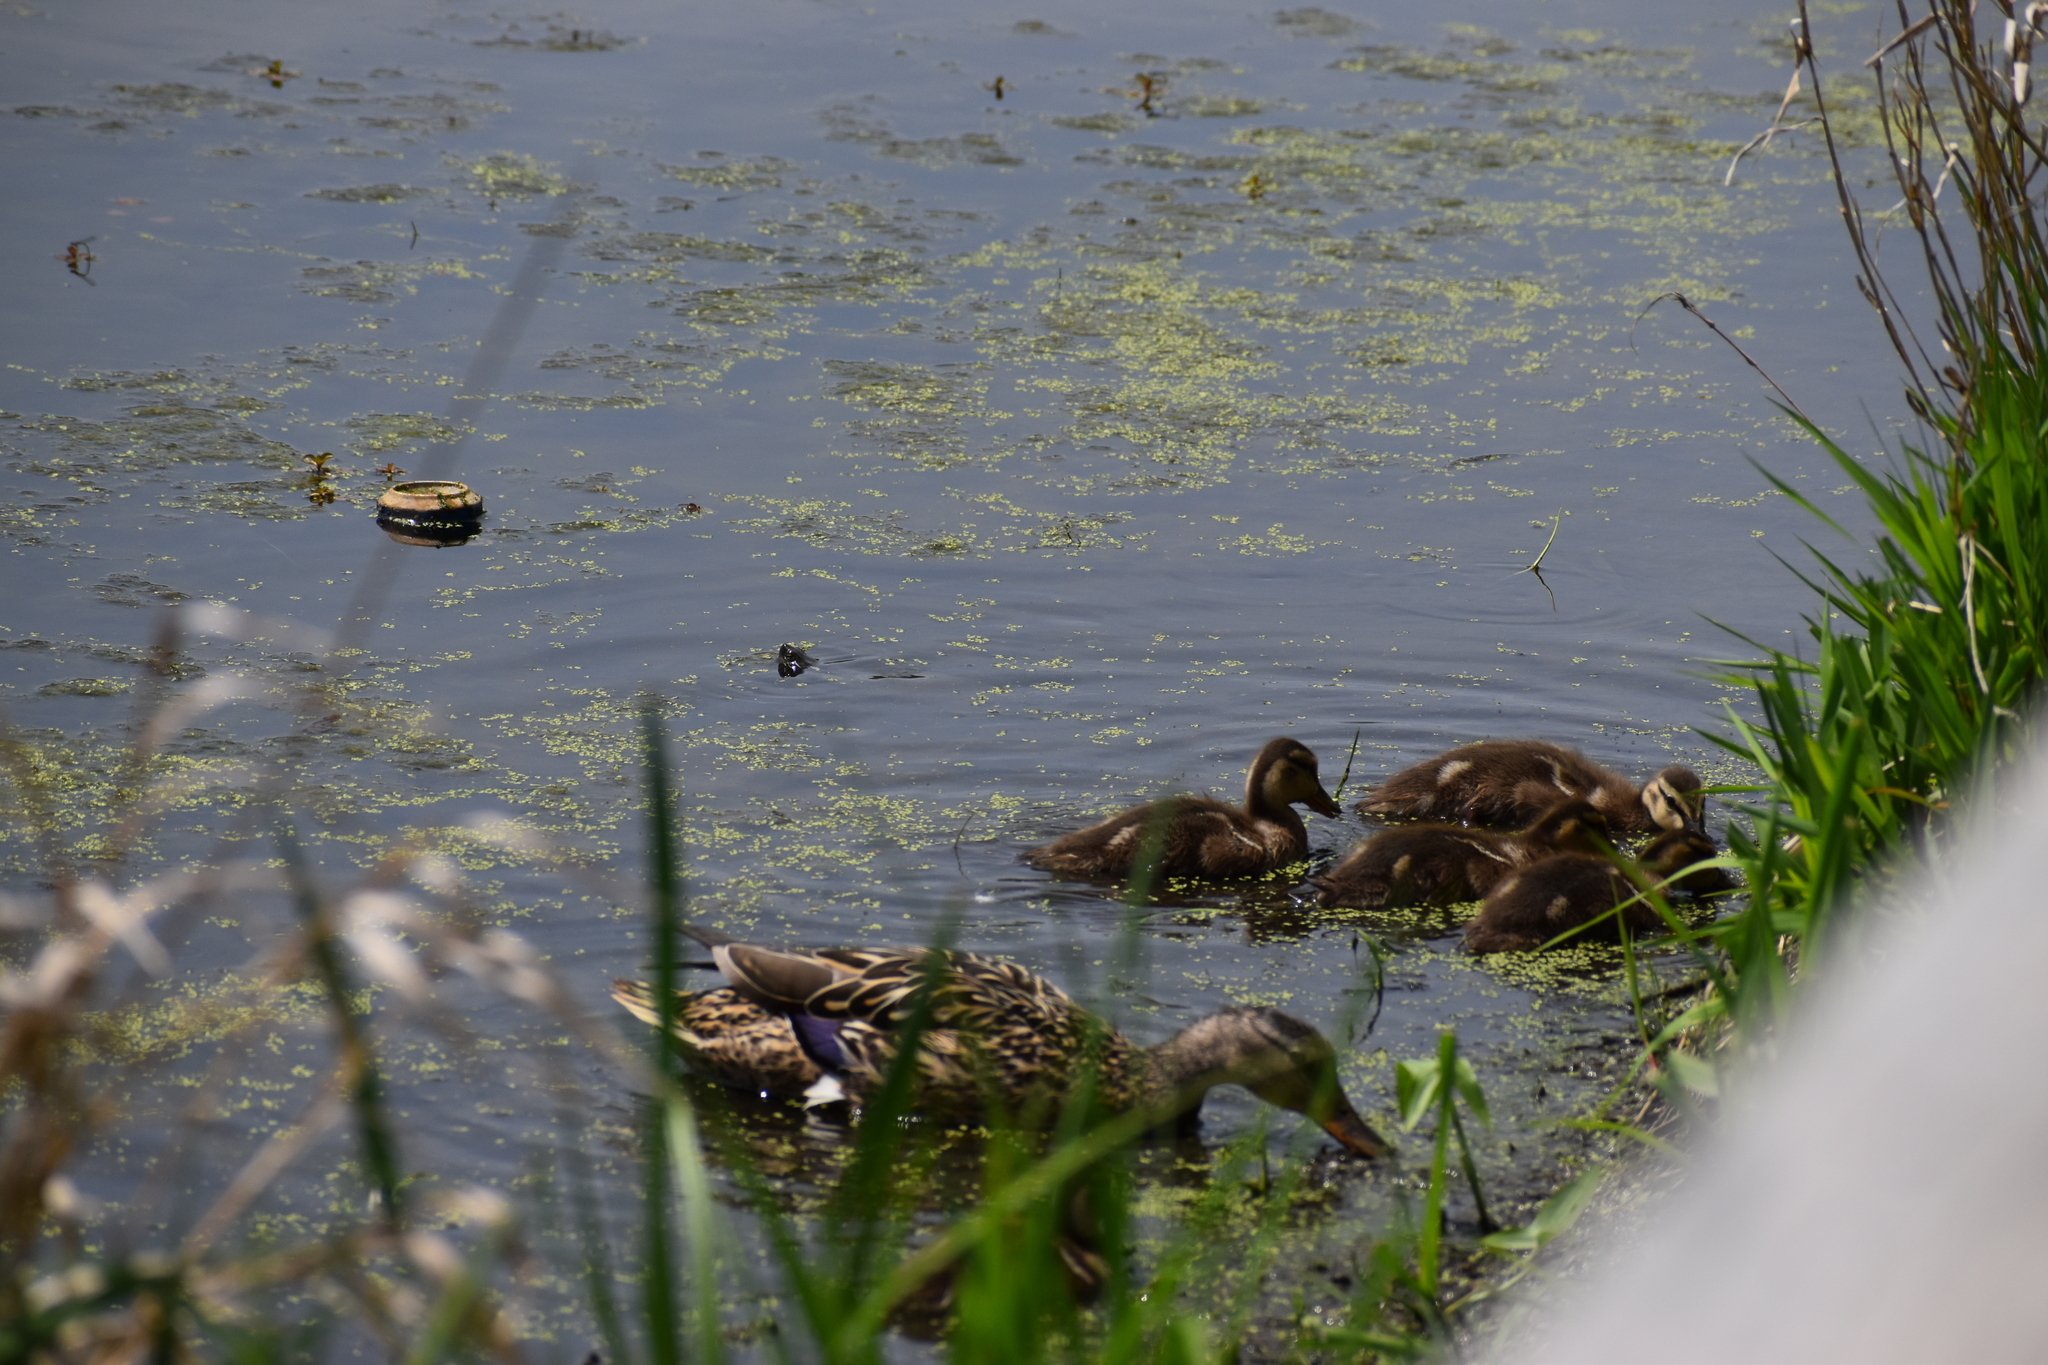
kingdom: Animalia
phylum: Chordata
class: Aves
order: Anseriformes
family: Anatidae
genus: Anas
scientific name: Anas platyrhynchos
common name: Mallard
